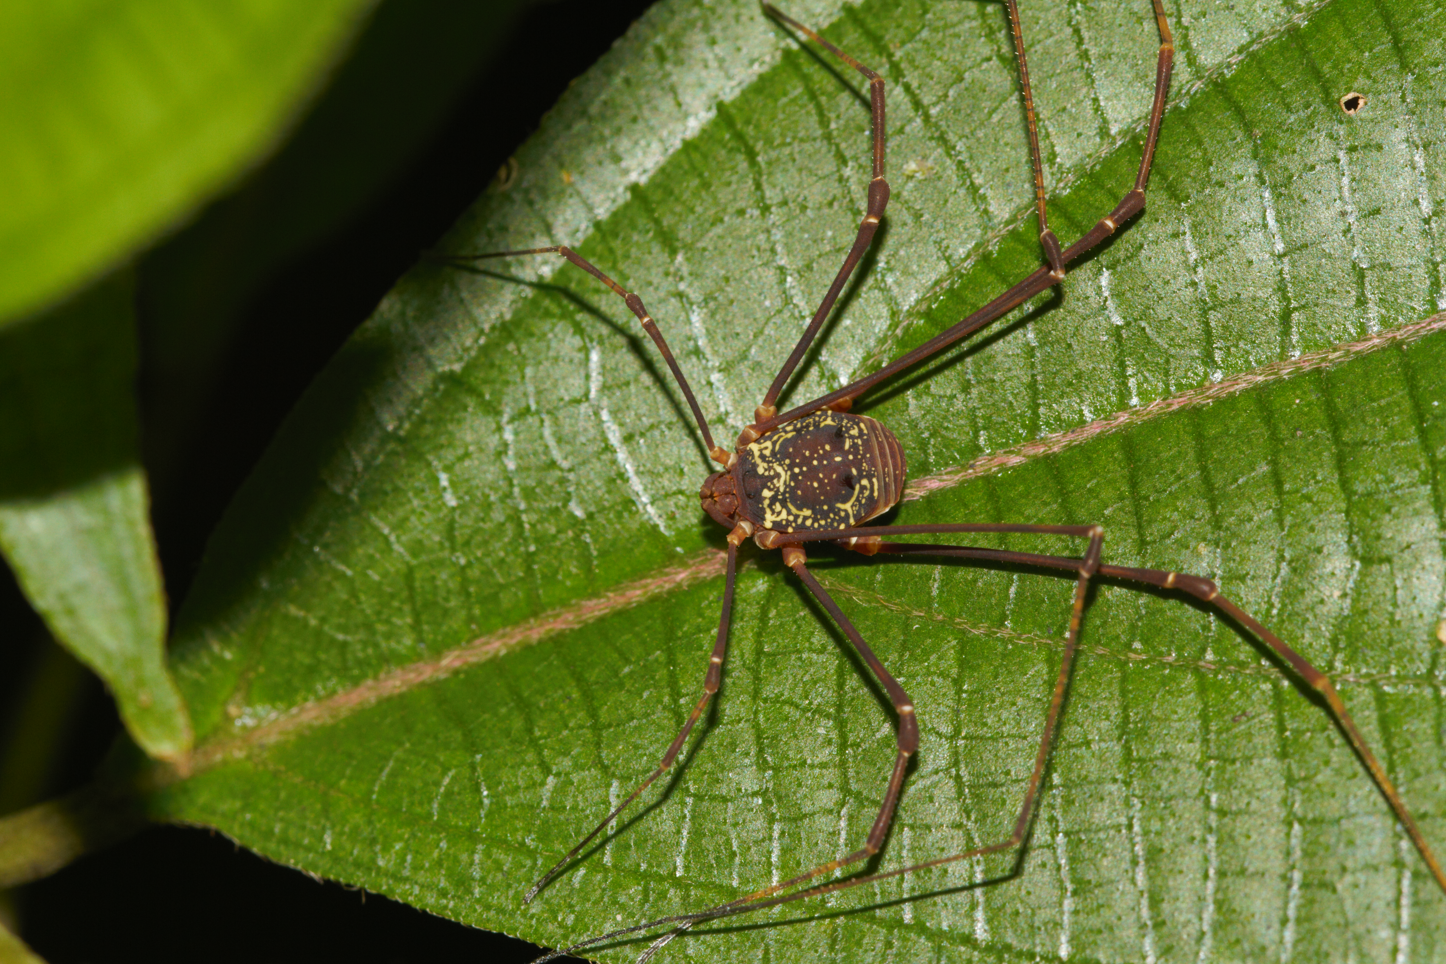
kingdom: Animalia
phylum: Arthropoda
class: Arachnida
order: Opiliones
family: Cosmetidae
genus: Paecilaema
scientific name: Paecilaema c-insignitum
